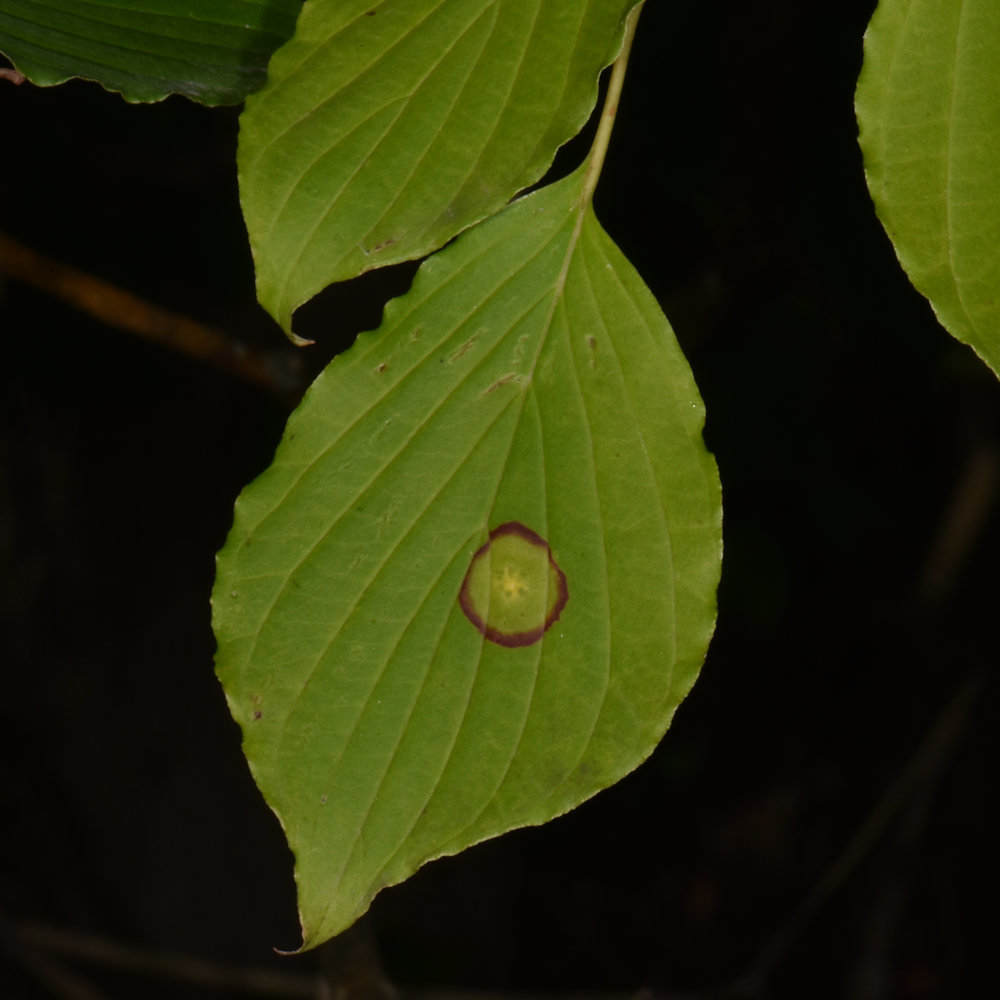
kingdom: Animalia
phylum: Arthropoda
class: Insecta
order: Diptera
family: Cecidomyiidae
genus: Parallelodiplosis
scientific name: Parallelodiplosis subtruncata
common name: Dogwood eyespot gall midge
